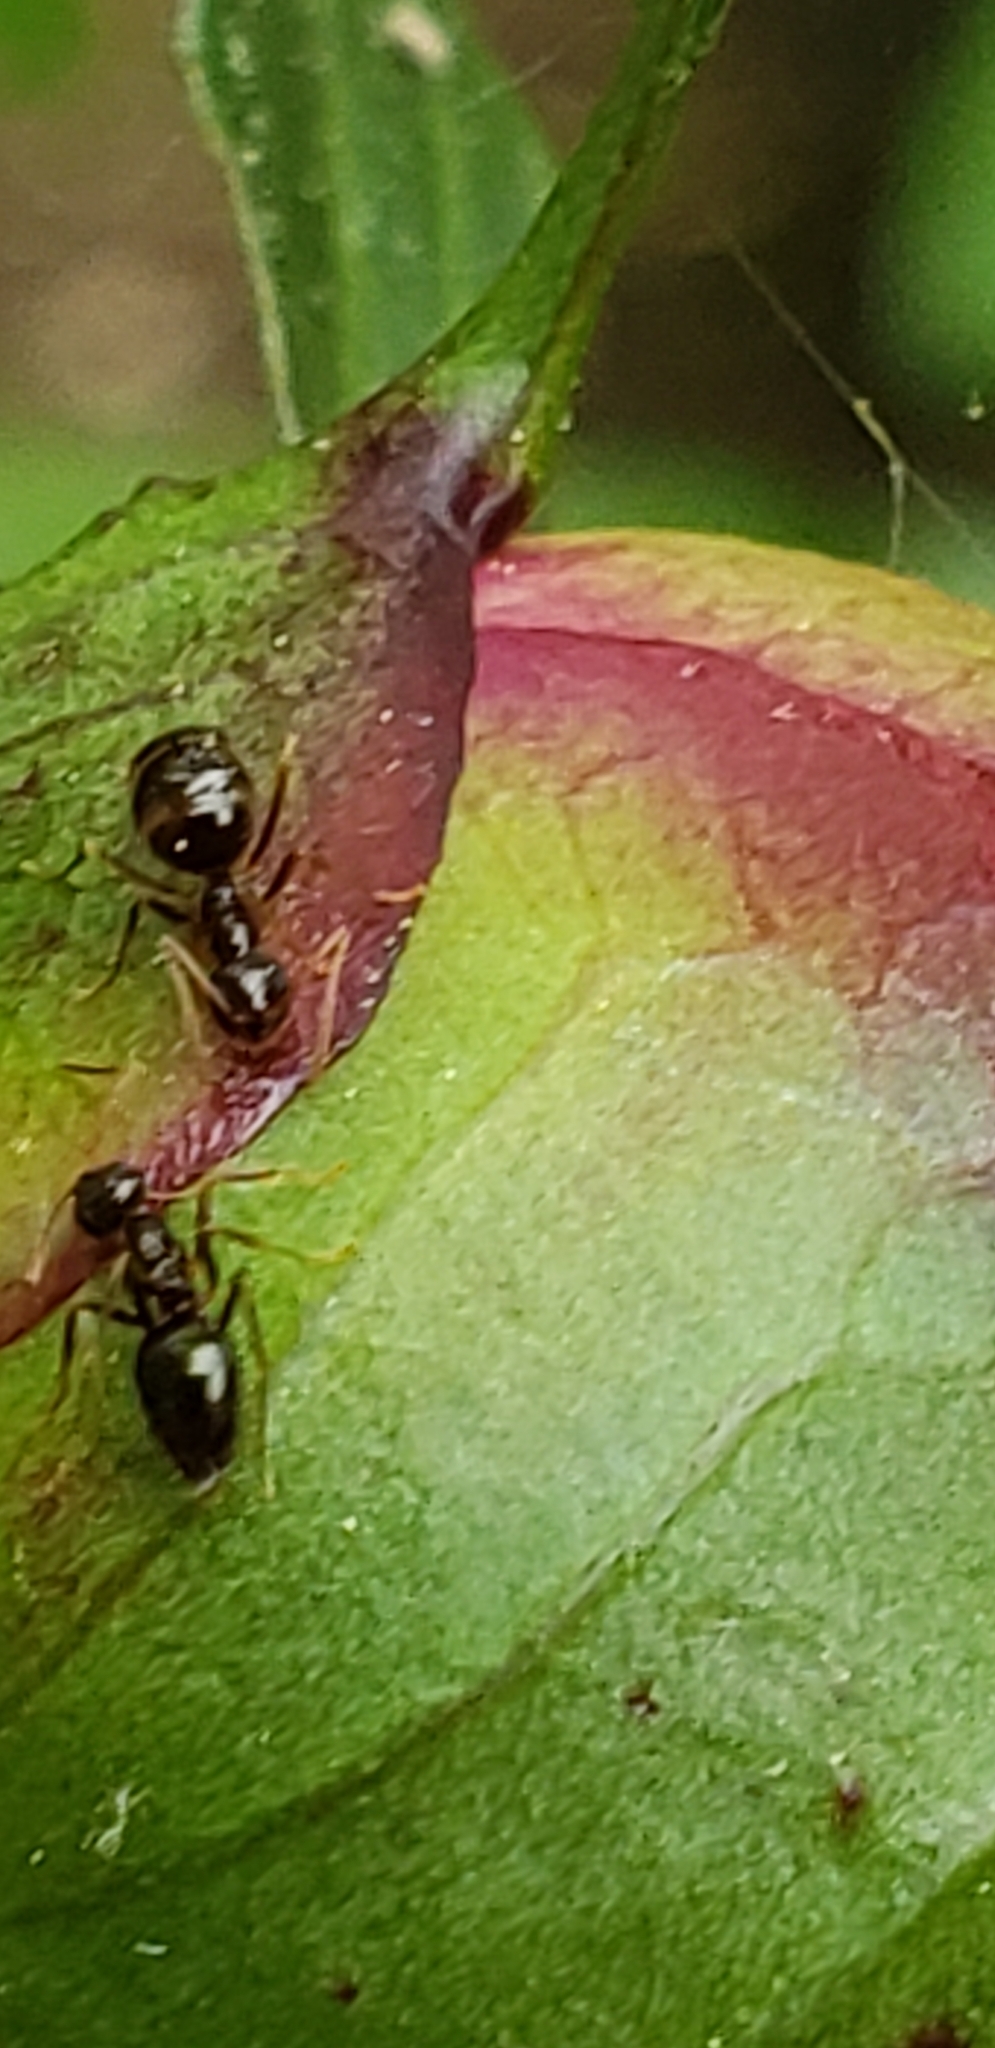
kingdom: Animalia
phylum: Arthropoda
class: Insecta
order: Hymenoptera
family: Formicidae
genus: Prenolepis
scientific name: Prenolepis imparis
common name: Small honey ant
